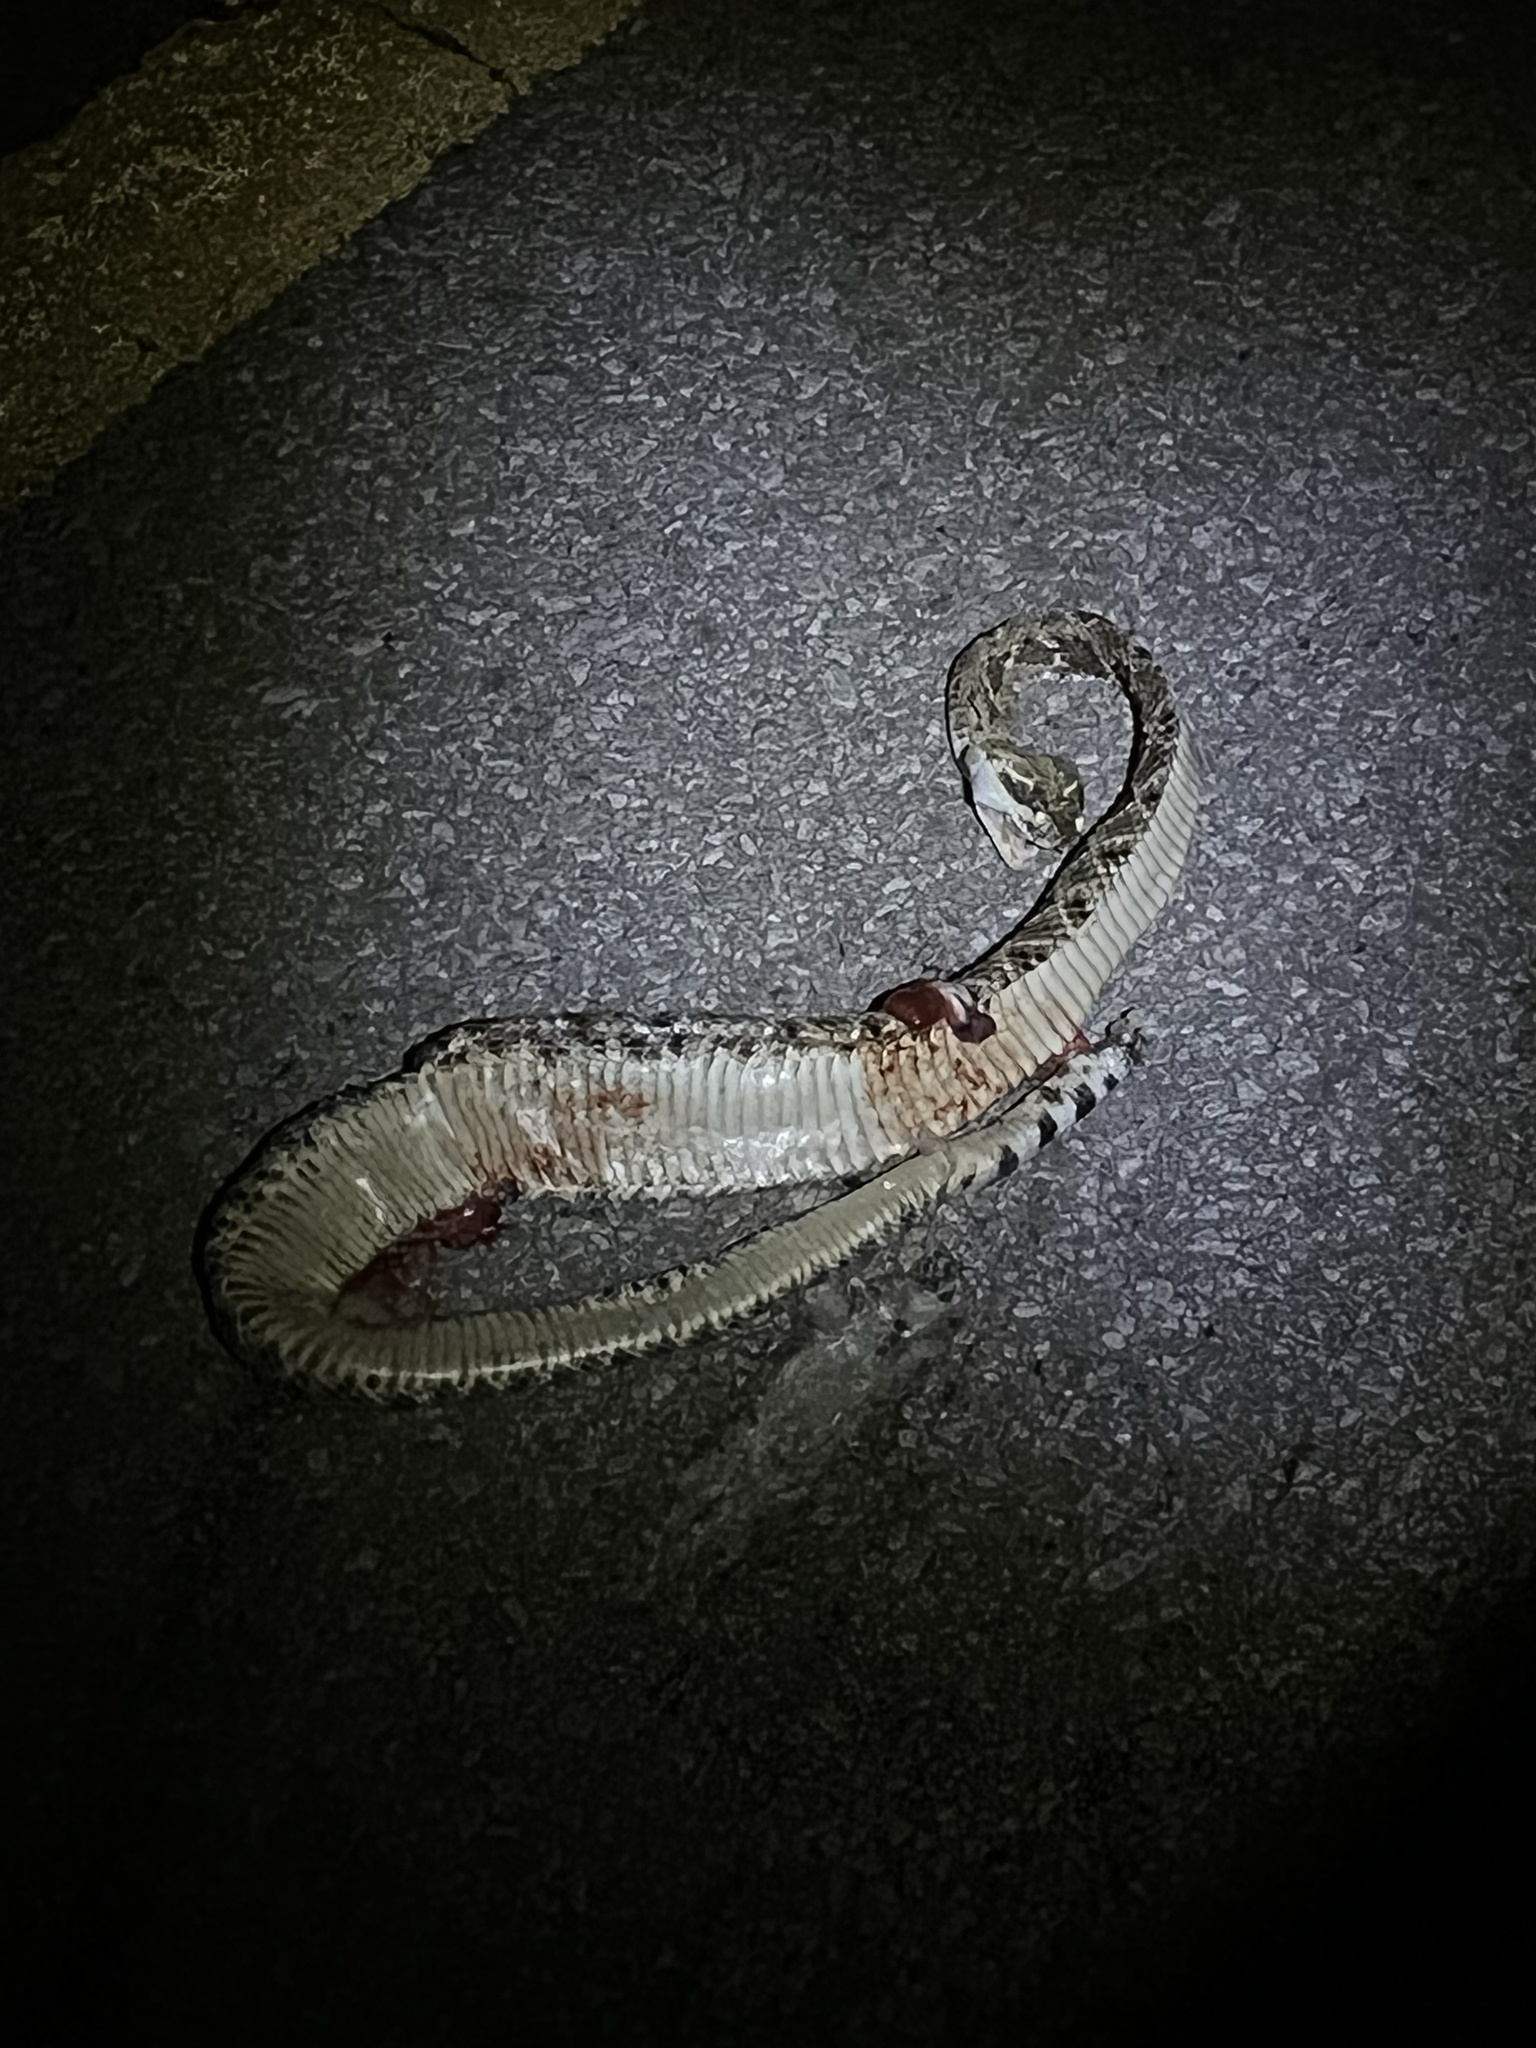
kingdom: Animalia
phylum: Chordata
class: Squamata
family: Viperidae
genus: Crotalus
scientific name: Crotalus atrox
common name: Western diamond-backed rattlesnake
